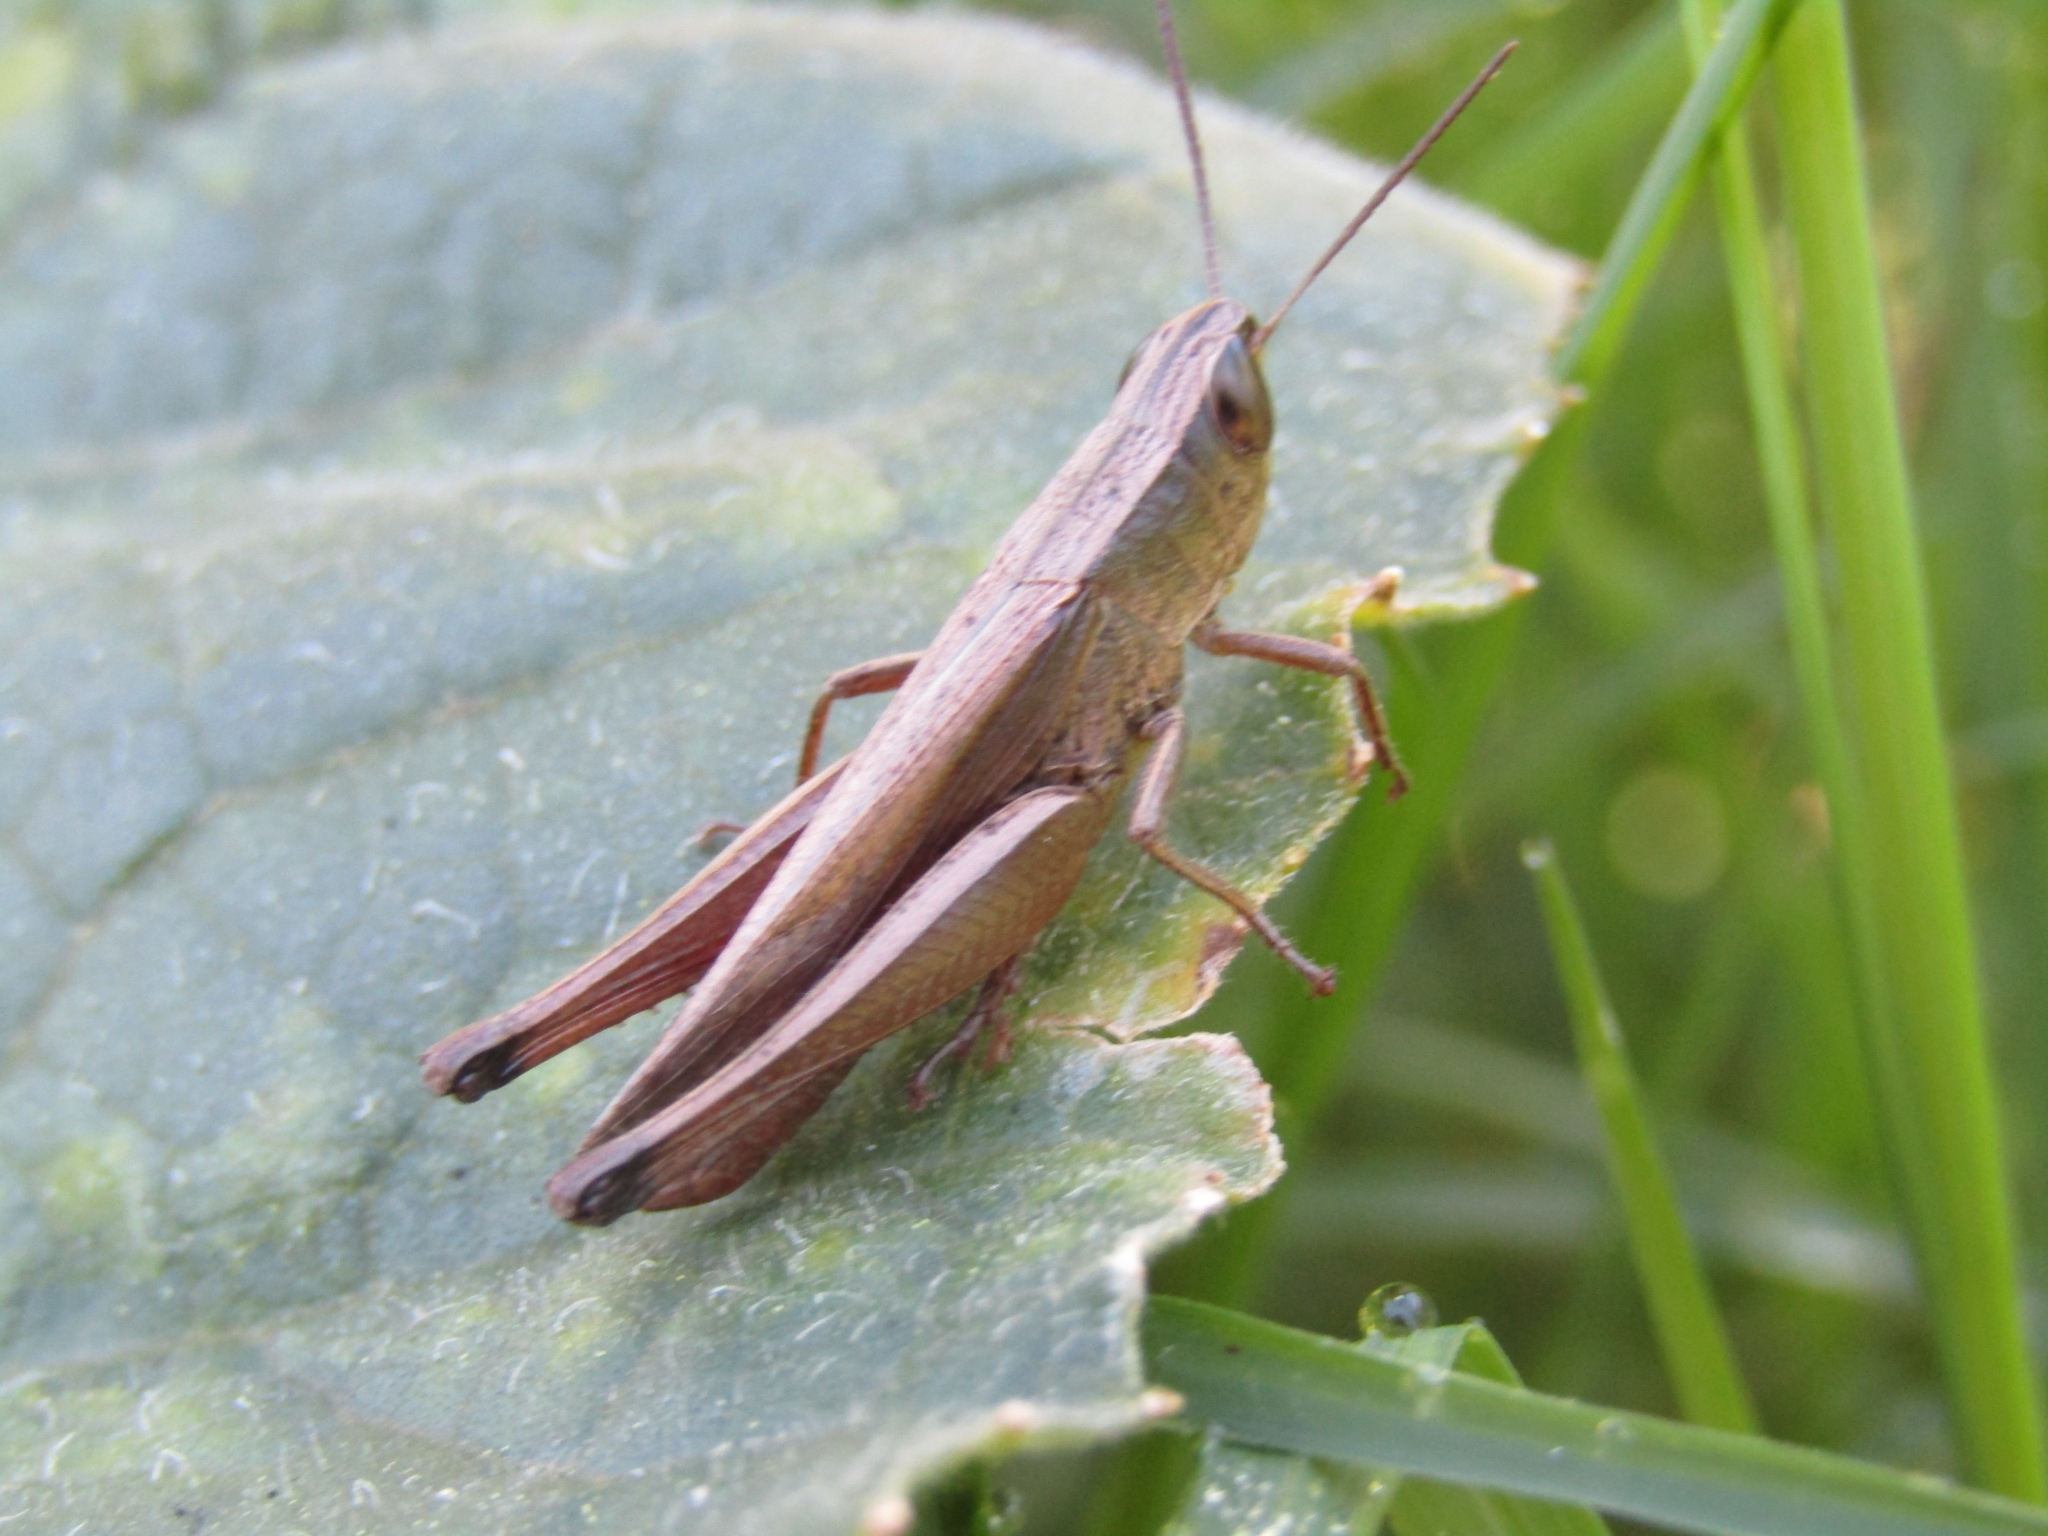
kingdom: Animalia
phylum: Arthropoda
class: Insecta
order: Orthoptera
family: Acrididae
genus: Amblytropidia
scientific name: Amblytropidia australis
